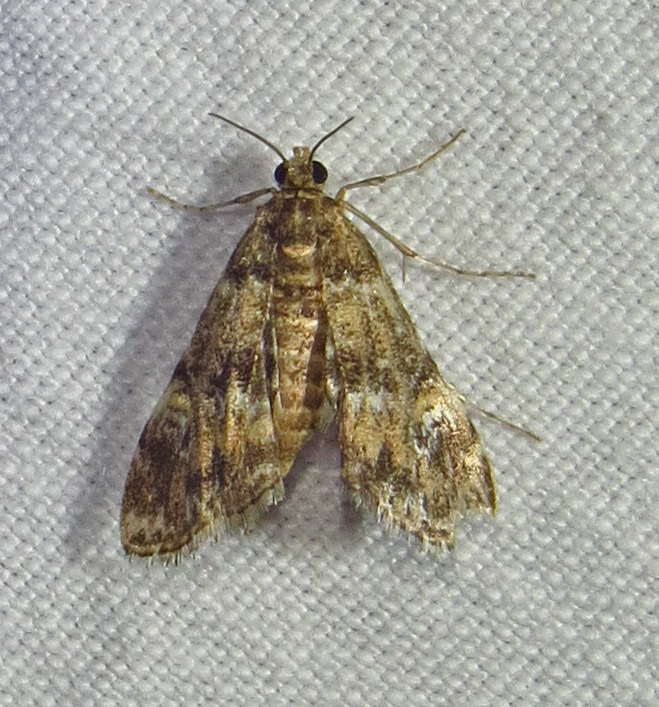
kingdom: Animalia
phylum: Arthropoda
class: Insecta
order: Lepidoptera
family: Crambidae
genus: Elophila
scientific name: Elophila obliteralis
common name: Waterlily leafcutter moth
